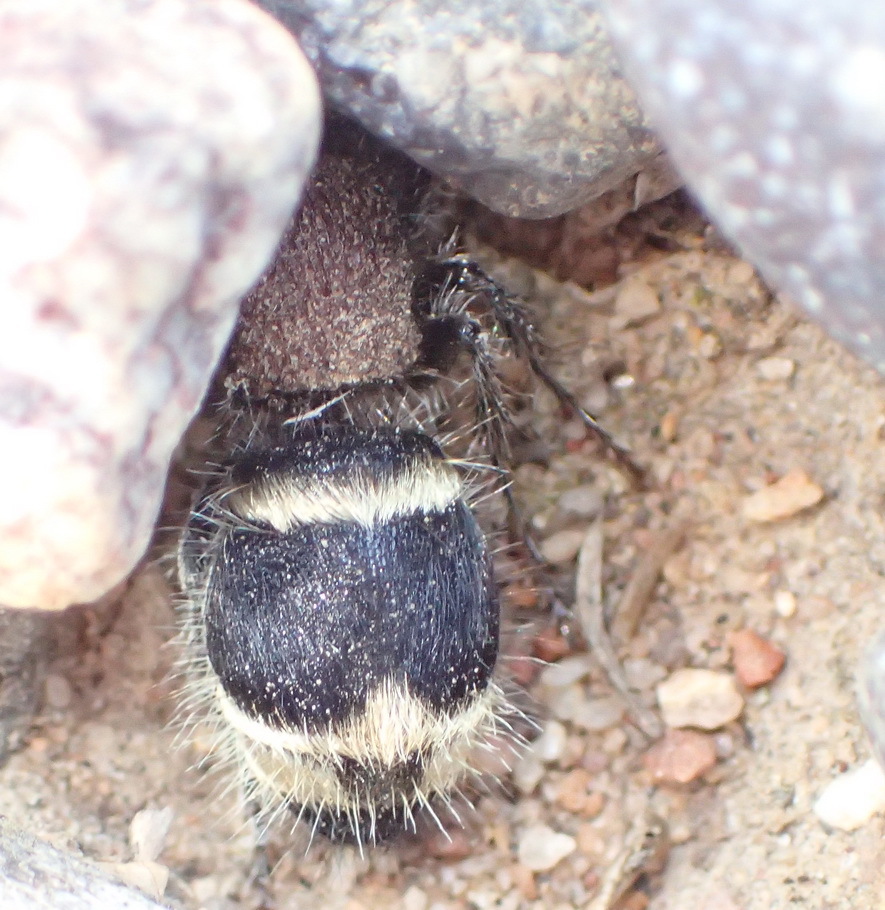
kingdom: Animalia
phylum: Arthropoda
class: Insecta
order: Hymenoptera
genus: Hadrotilla
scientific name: Hadrotilla
